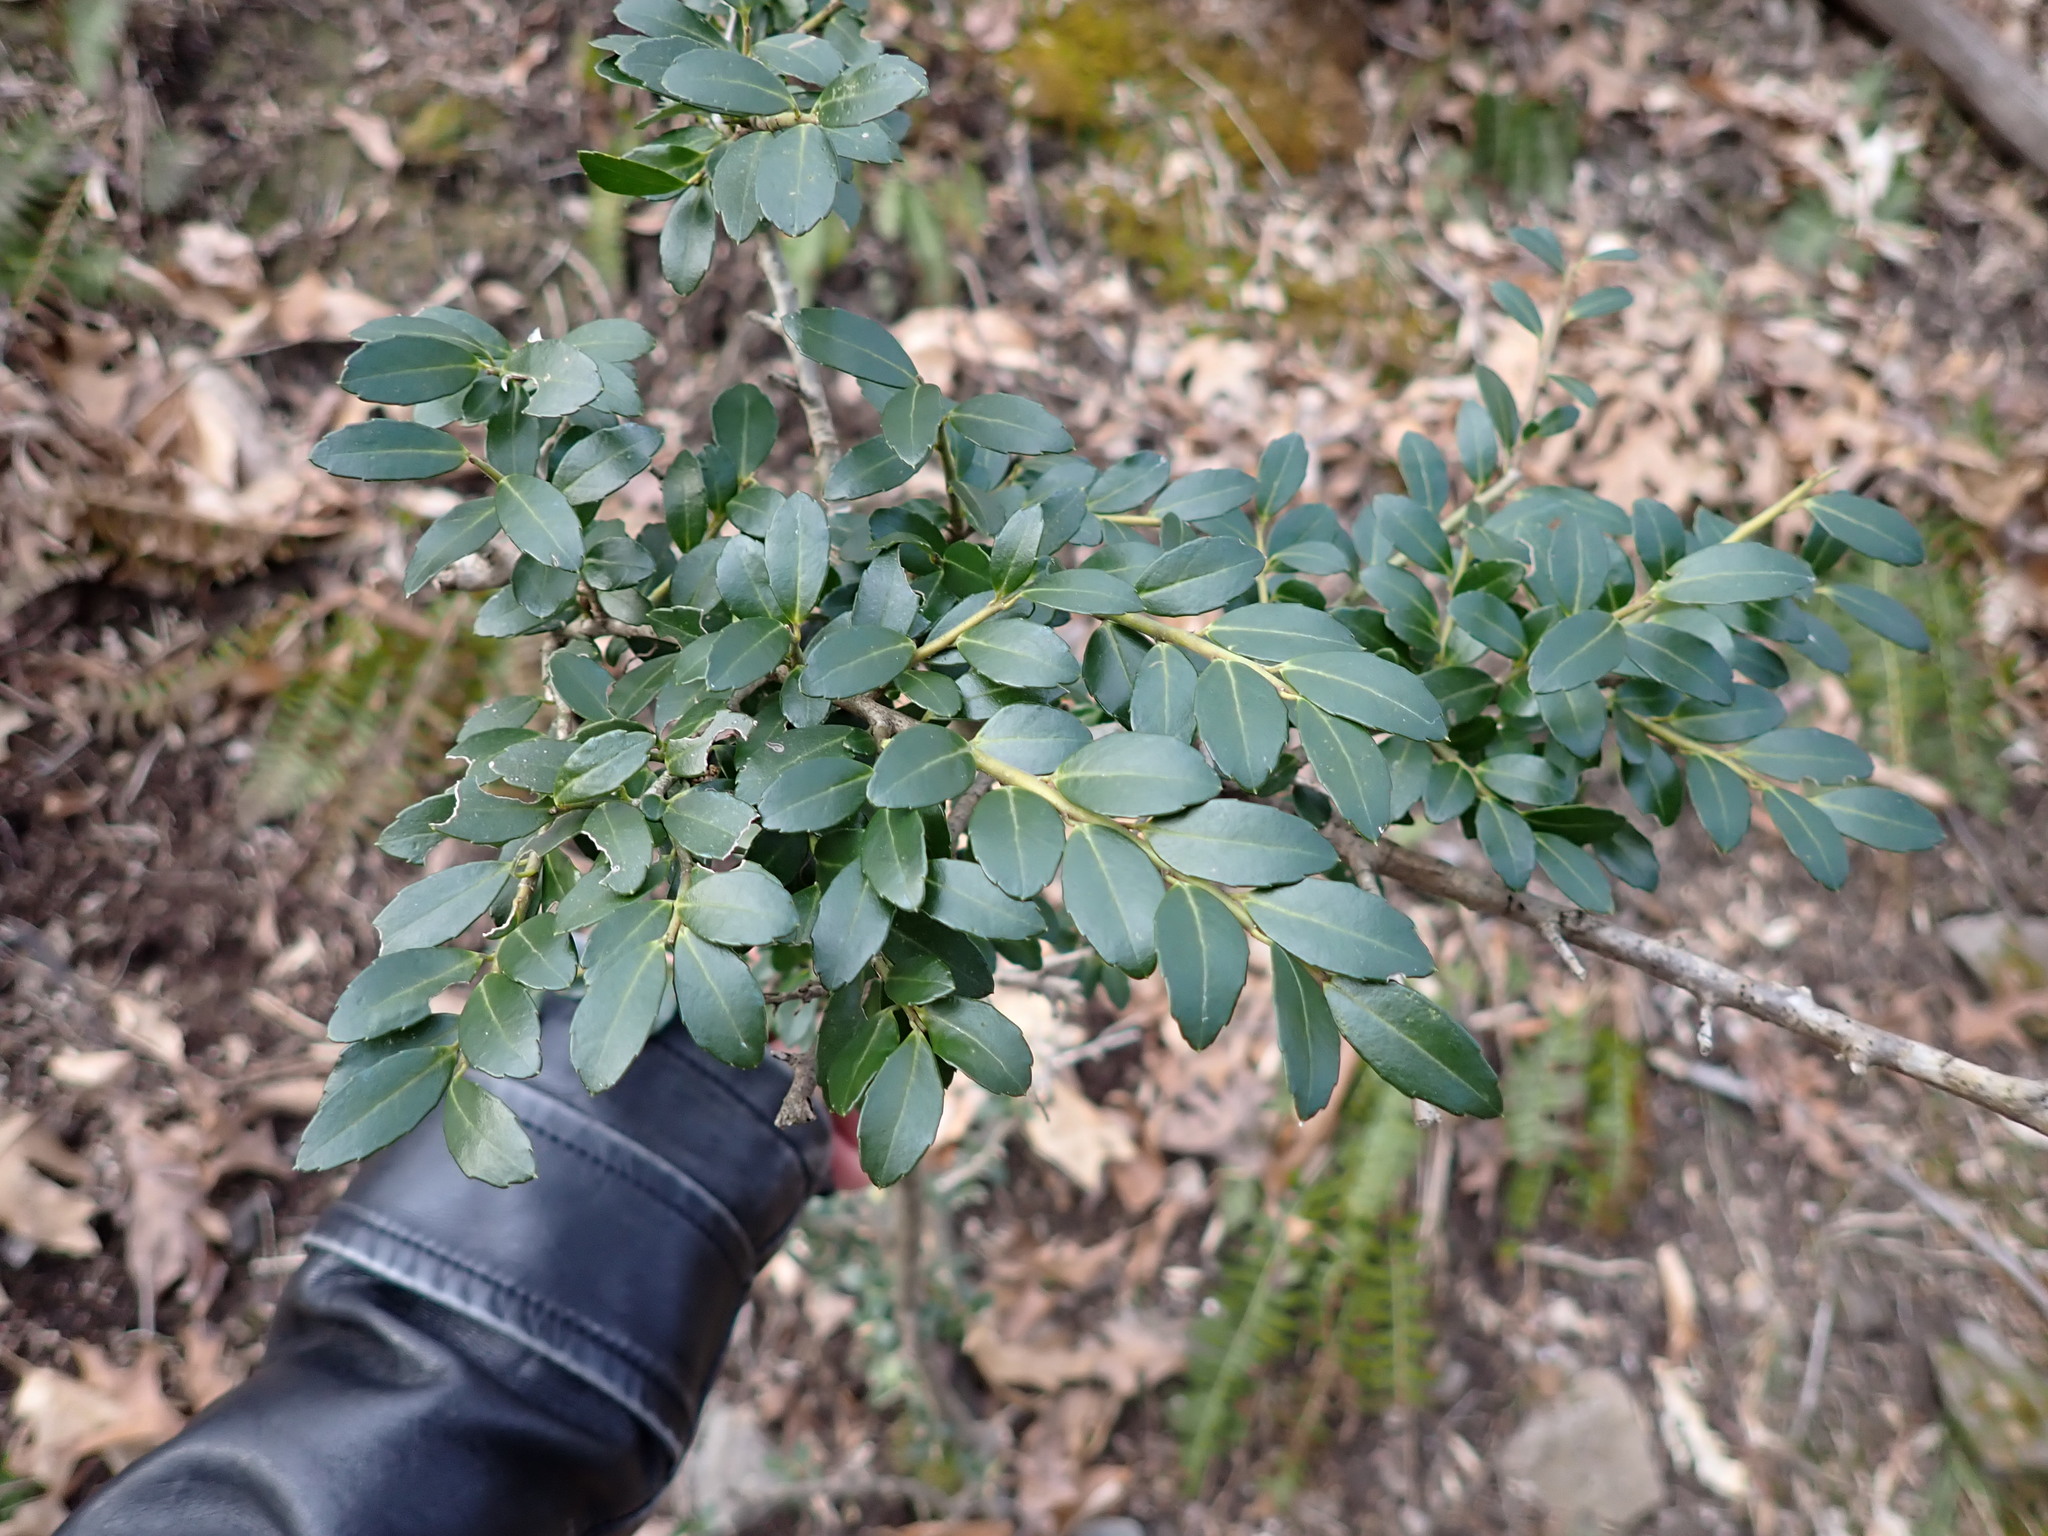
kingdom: Plantae
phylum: Tracheophyta
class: Magnoliopsida
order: Aquifoliales
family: Aquifoliaceae
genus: Ilex
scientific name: Ilex crenata
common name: Japanese holly
